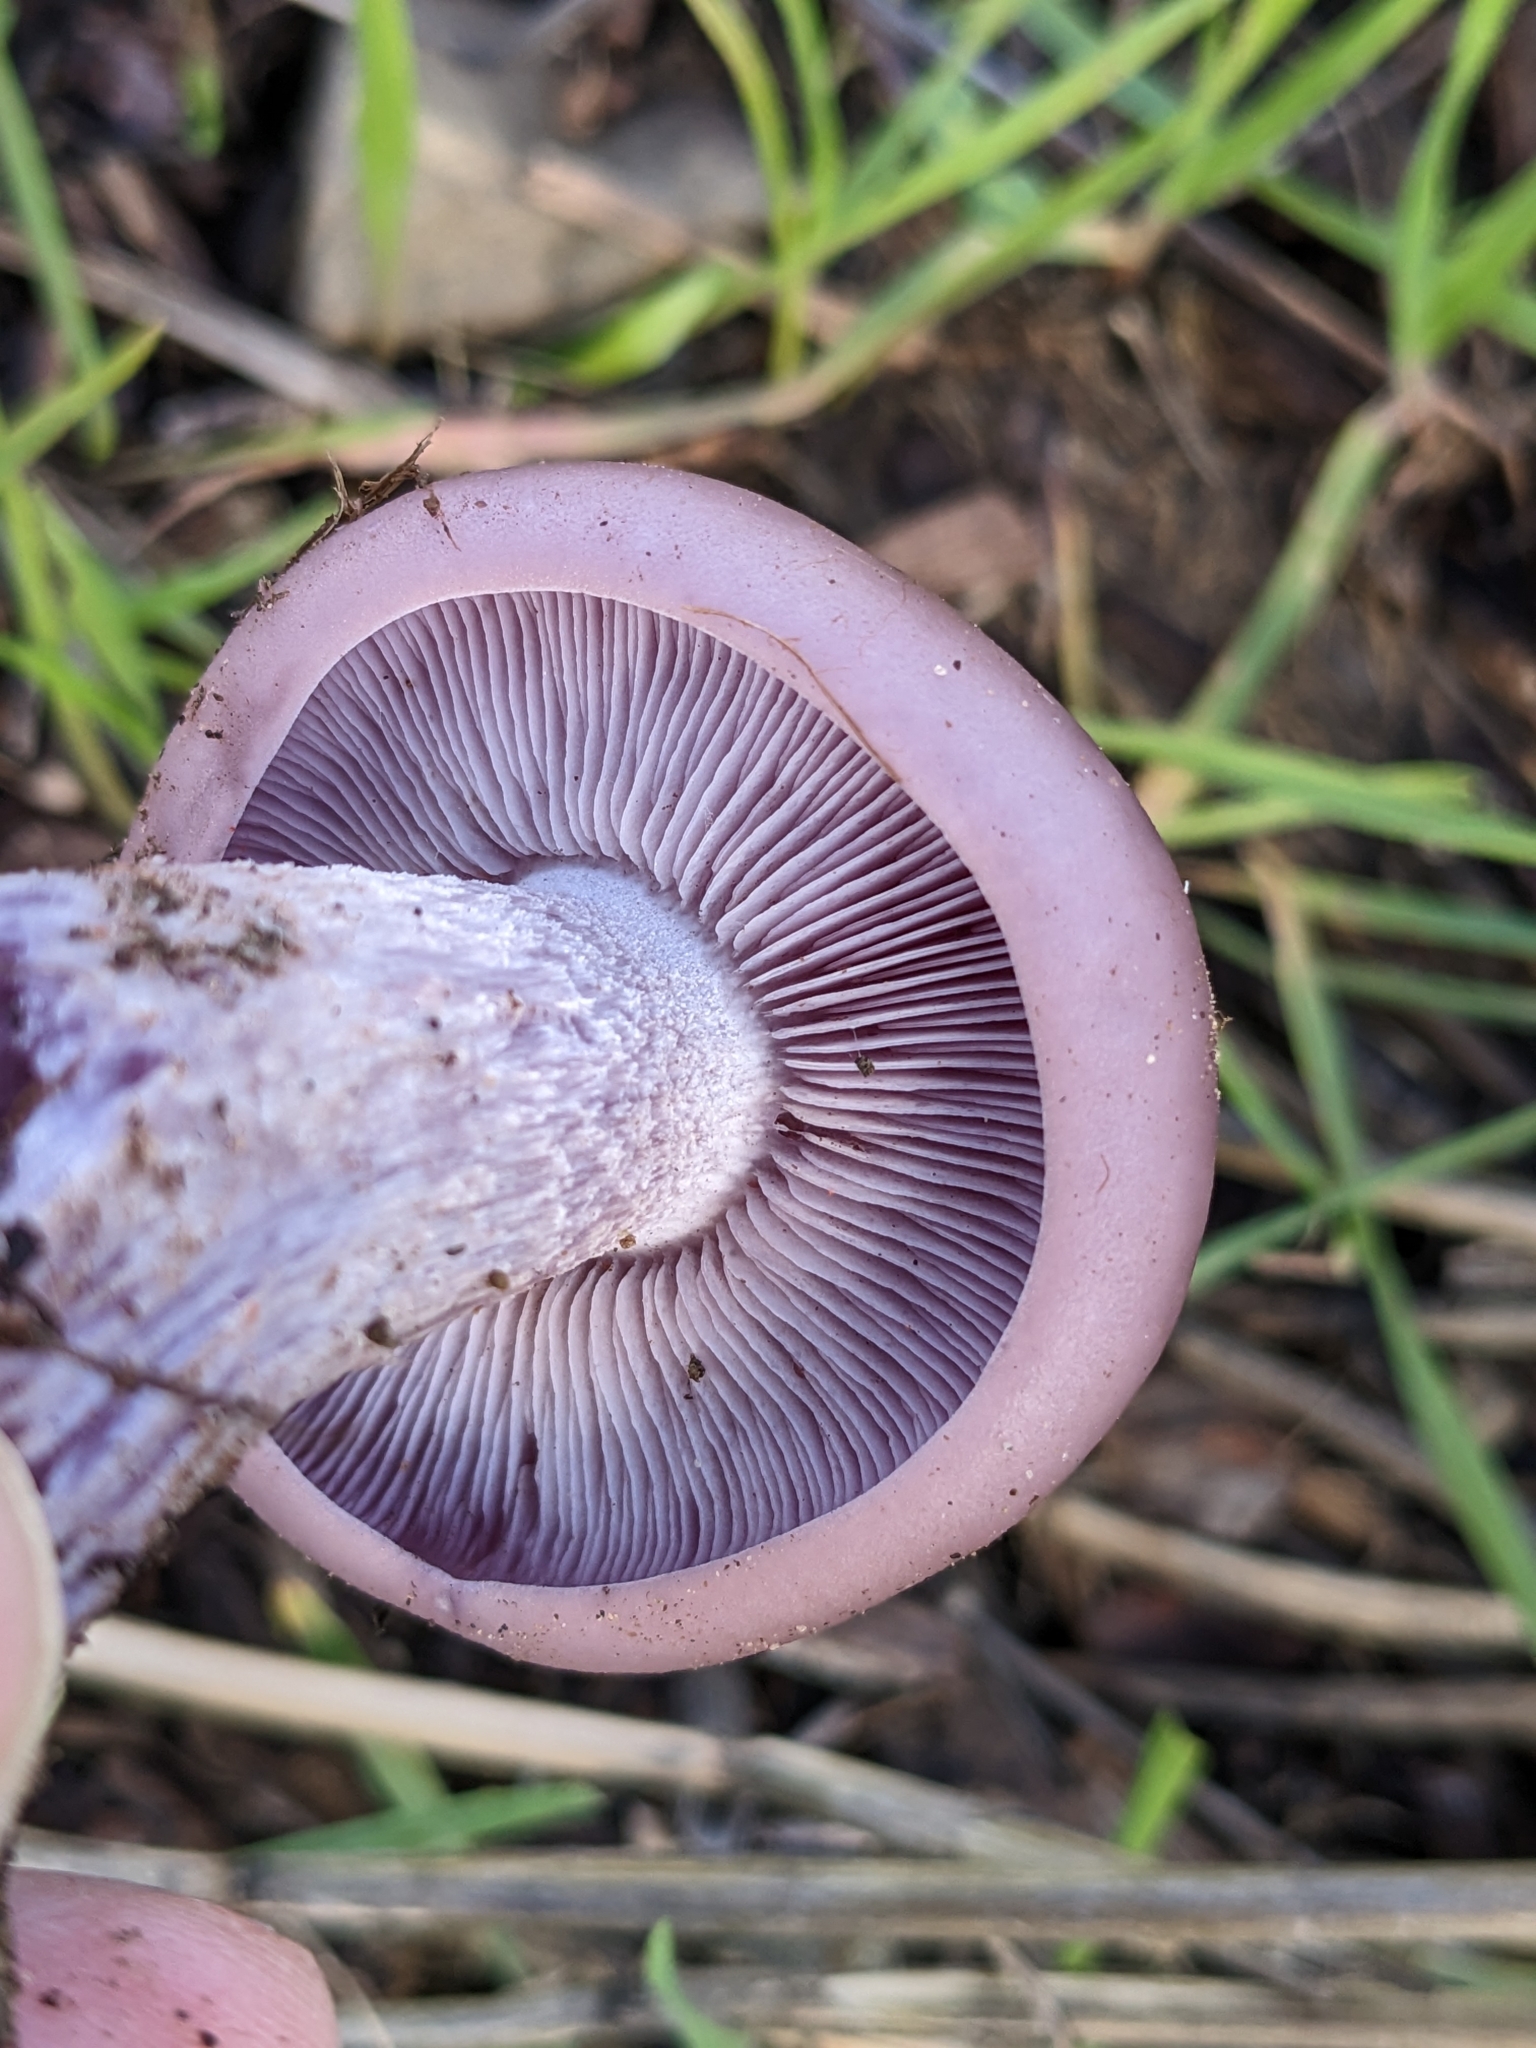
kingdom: Fungi
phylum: Basidiomycota
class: Agaricomycetes
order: Agaricales
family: Tricholomataceae
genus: Collybia
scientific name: Collybia
